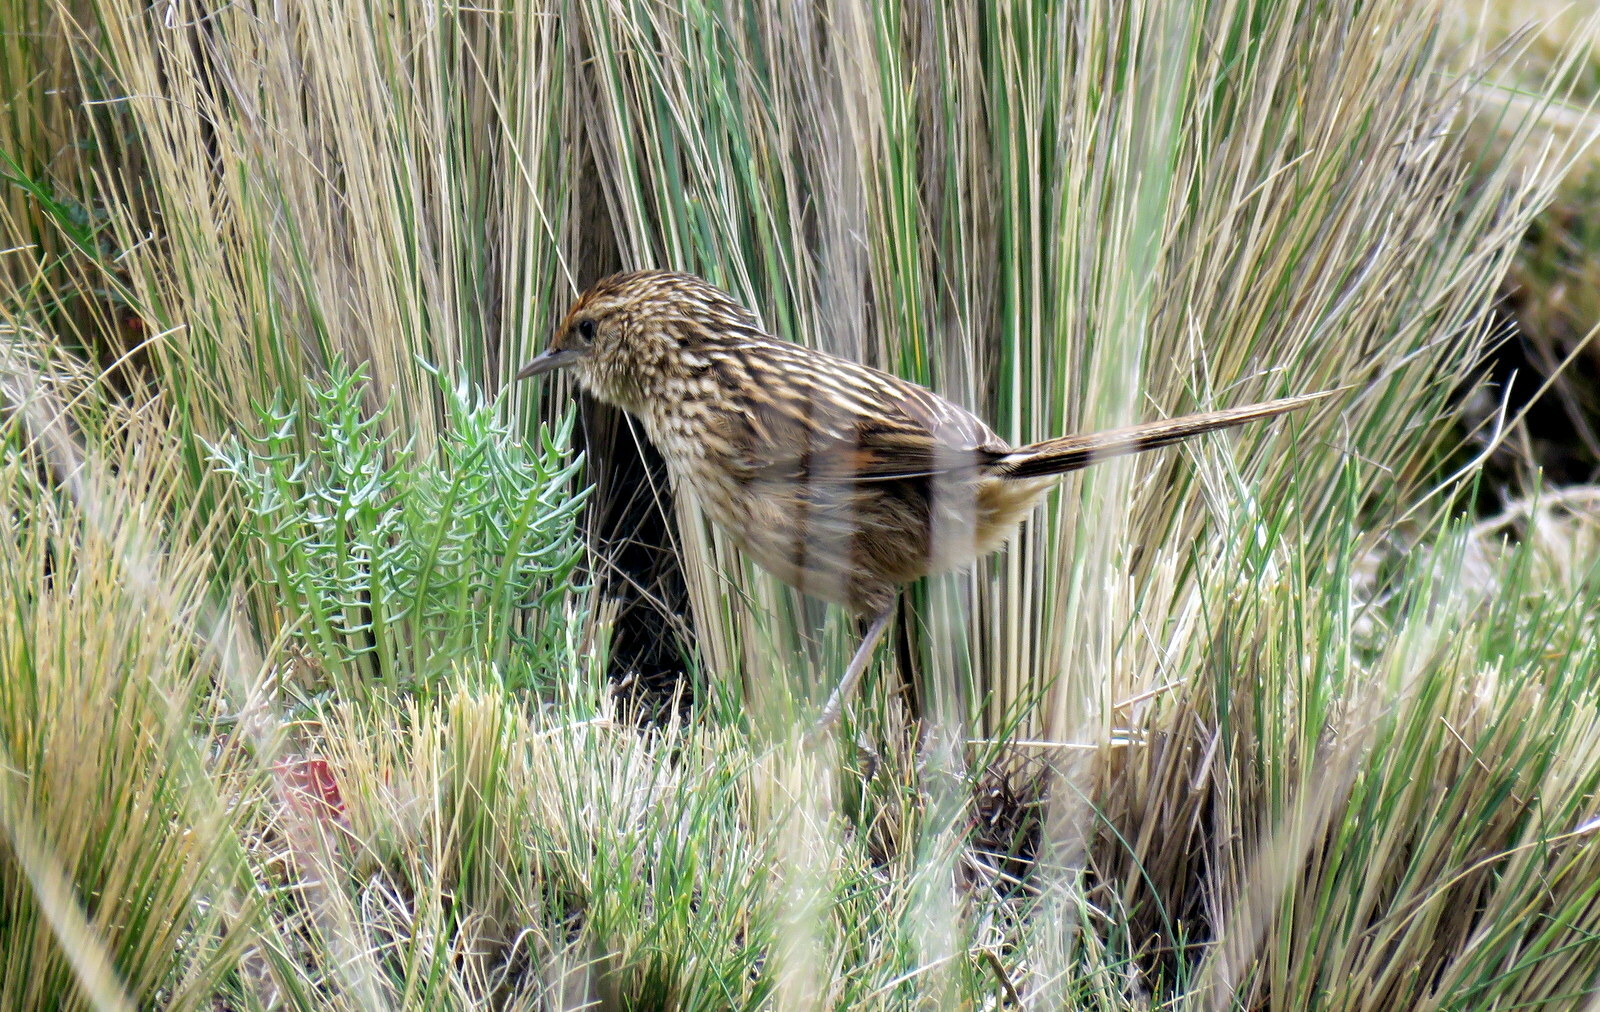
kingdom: Animalia
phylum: Chordata
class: Aves
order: Passeriformes
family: Furnariidae
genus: Asthenes
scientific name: Asthenes maculicauda
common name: Scribble-tailed canastero
